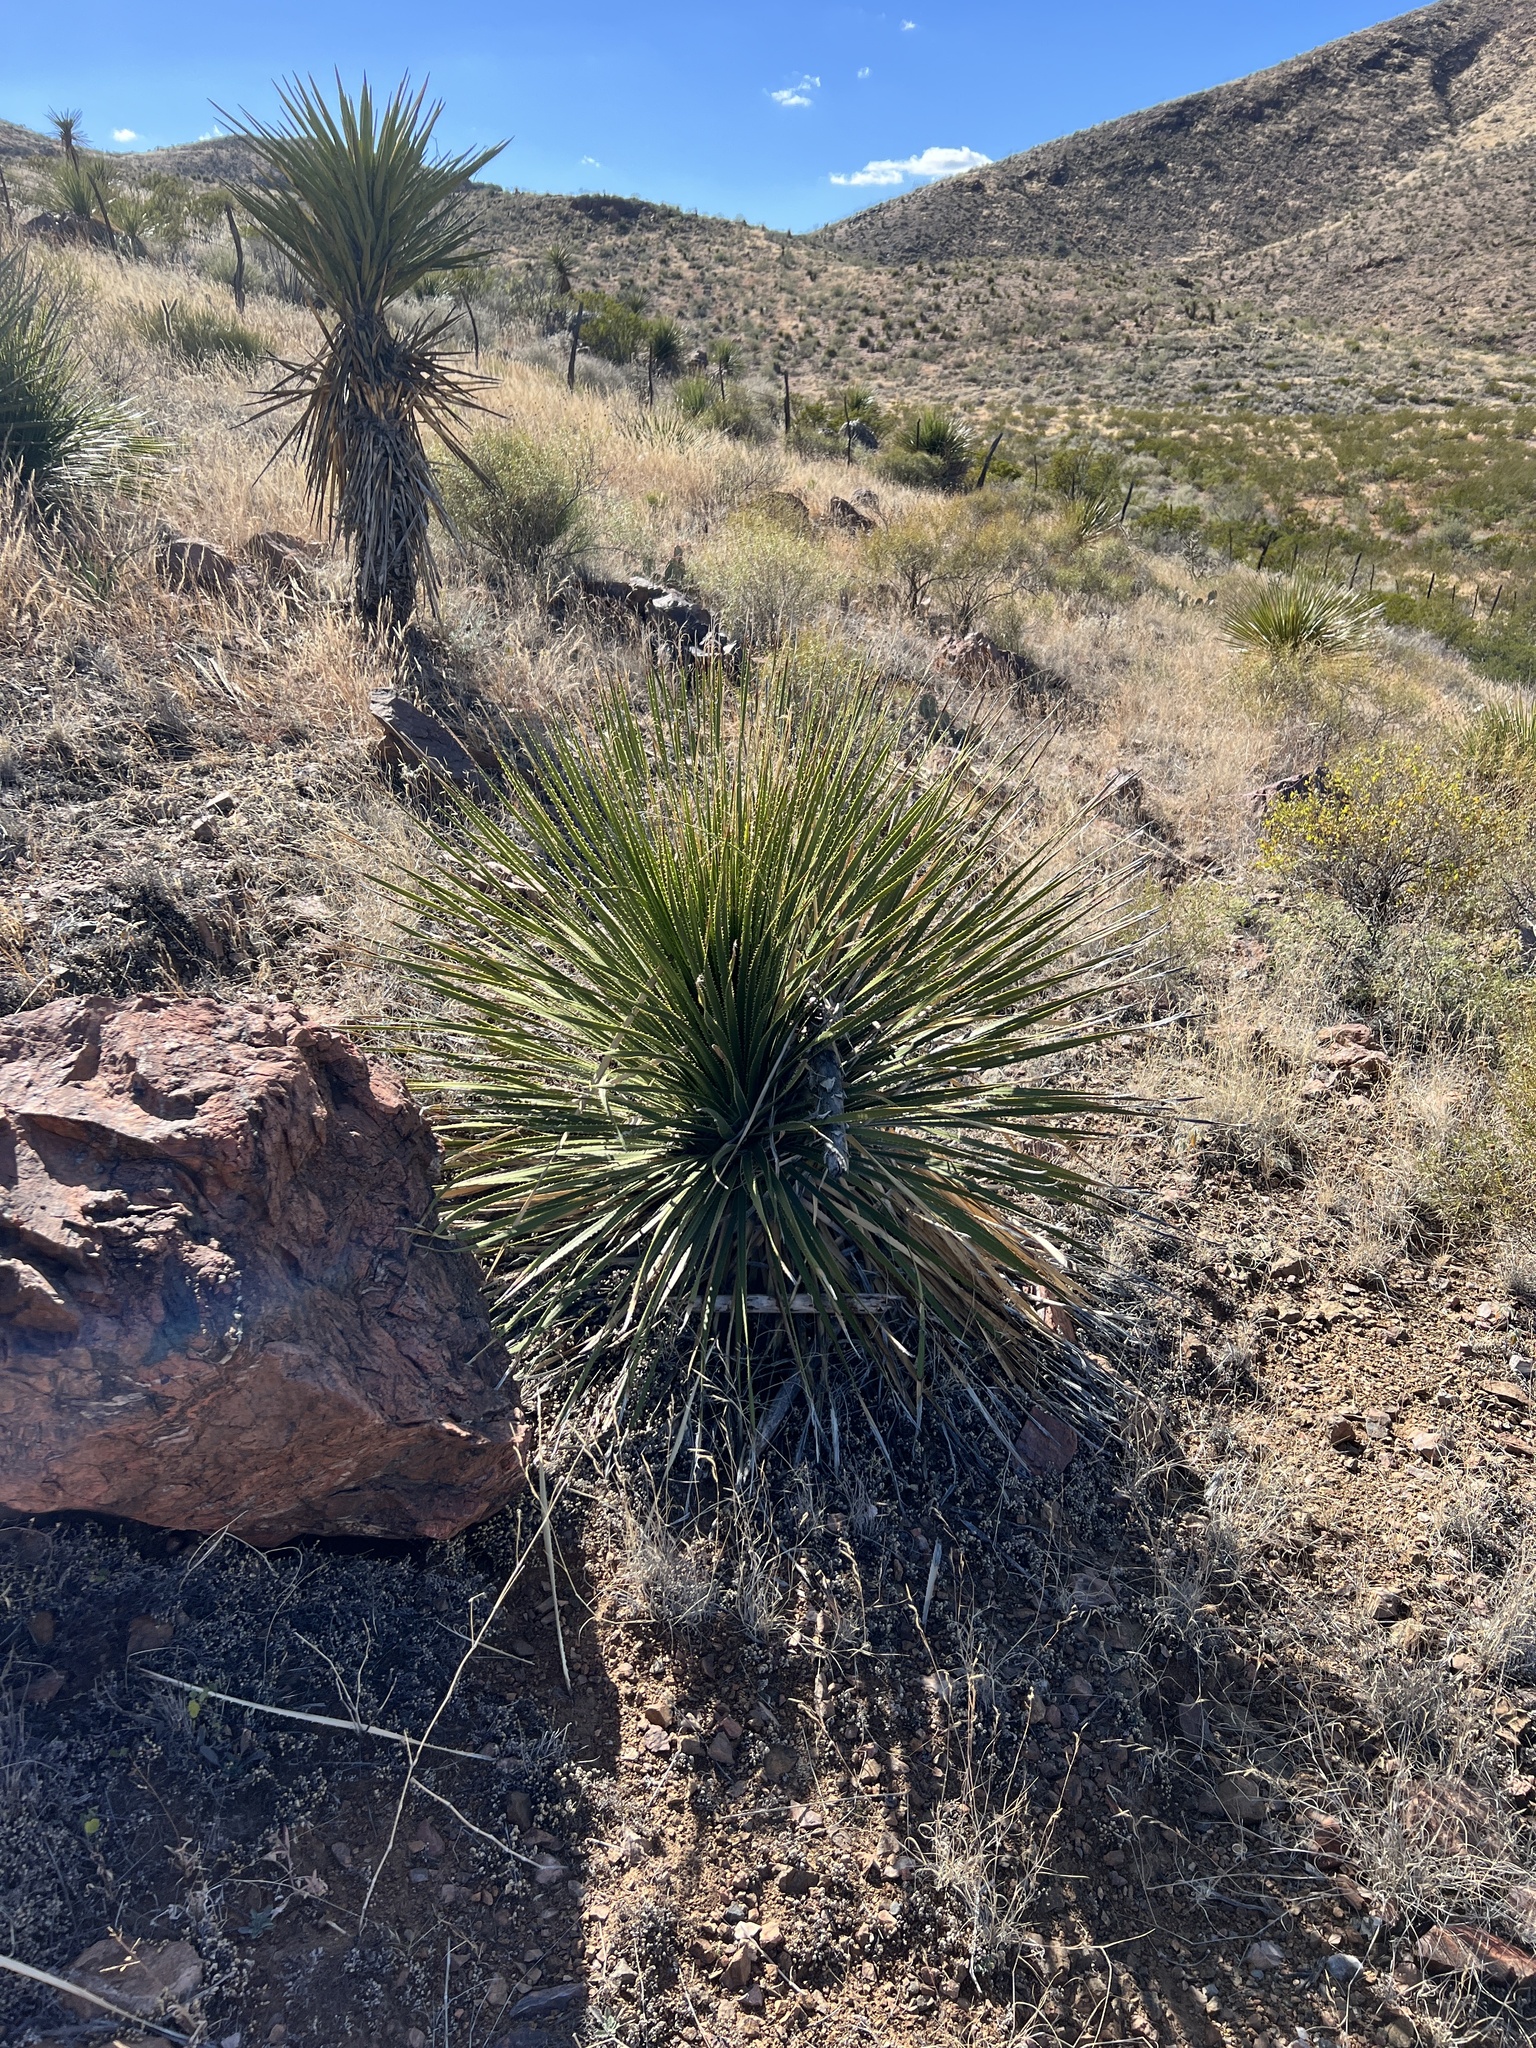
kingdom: Plantae
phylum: Tracheophyta
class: Liliopsida
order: Asparagales
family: Asparagaceae
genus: Dasylirion
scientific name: Dasylirion leiophyllum
